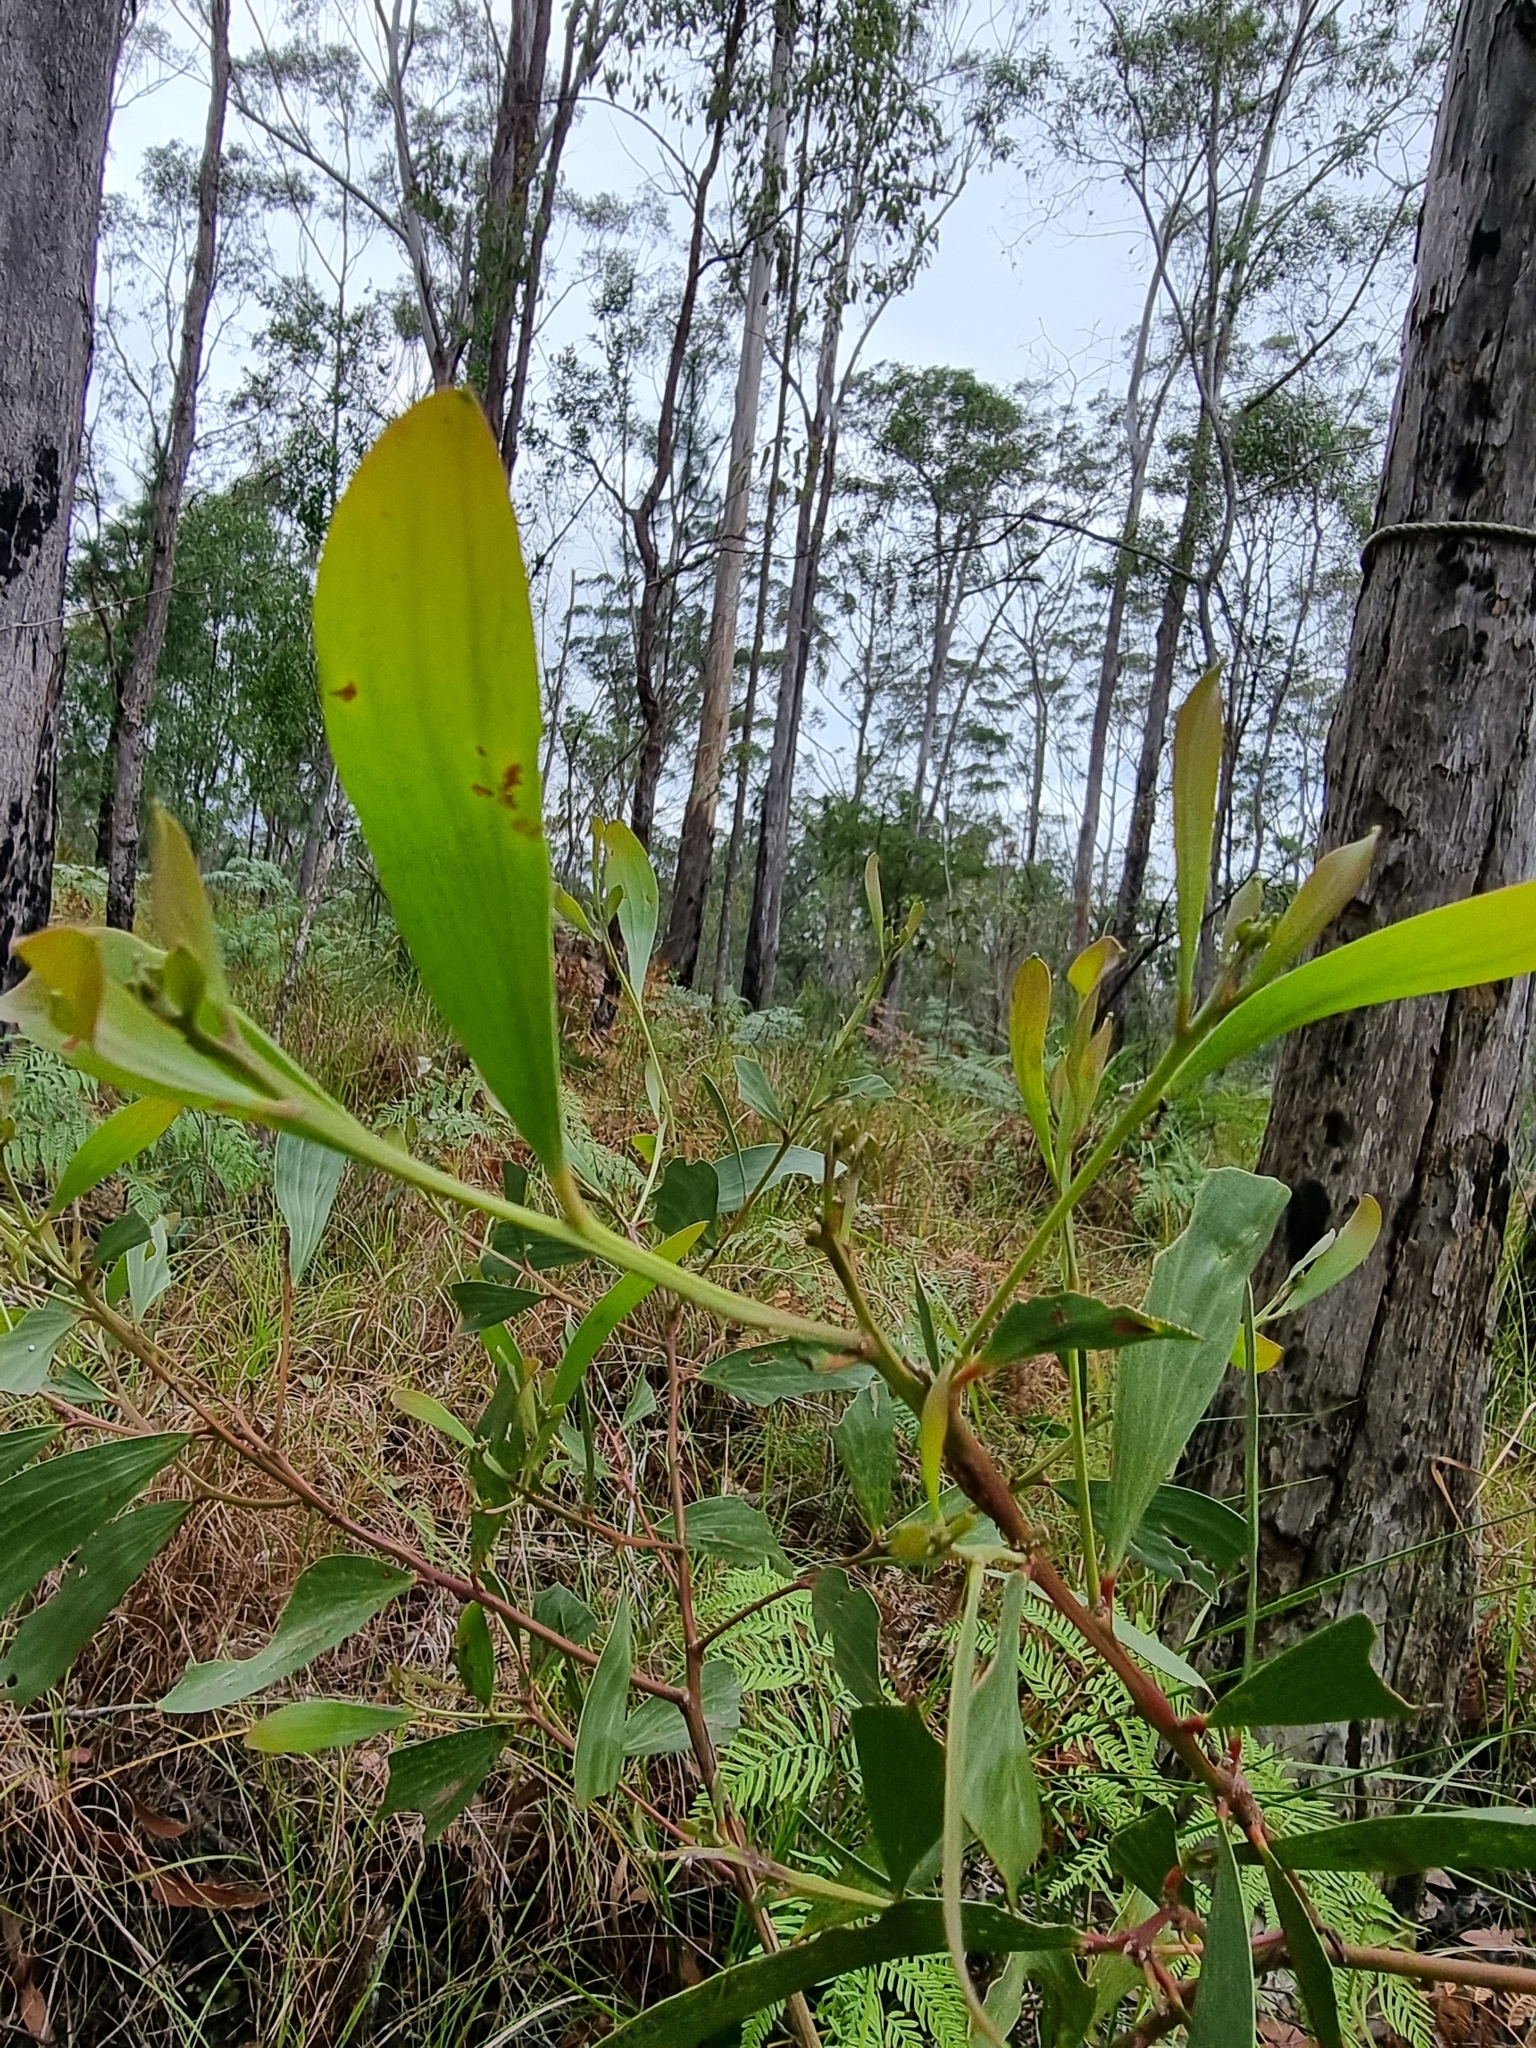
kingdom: Plantae
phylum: Tracheophyta
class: Magnoliopsida
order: Fabales
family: Fabaceae
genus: Acacia
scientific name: Acacia leiocalyx
